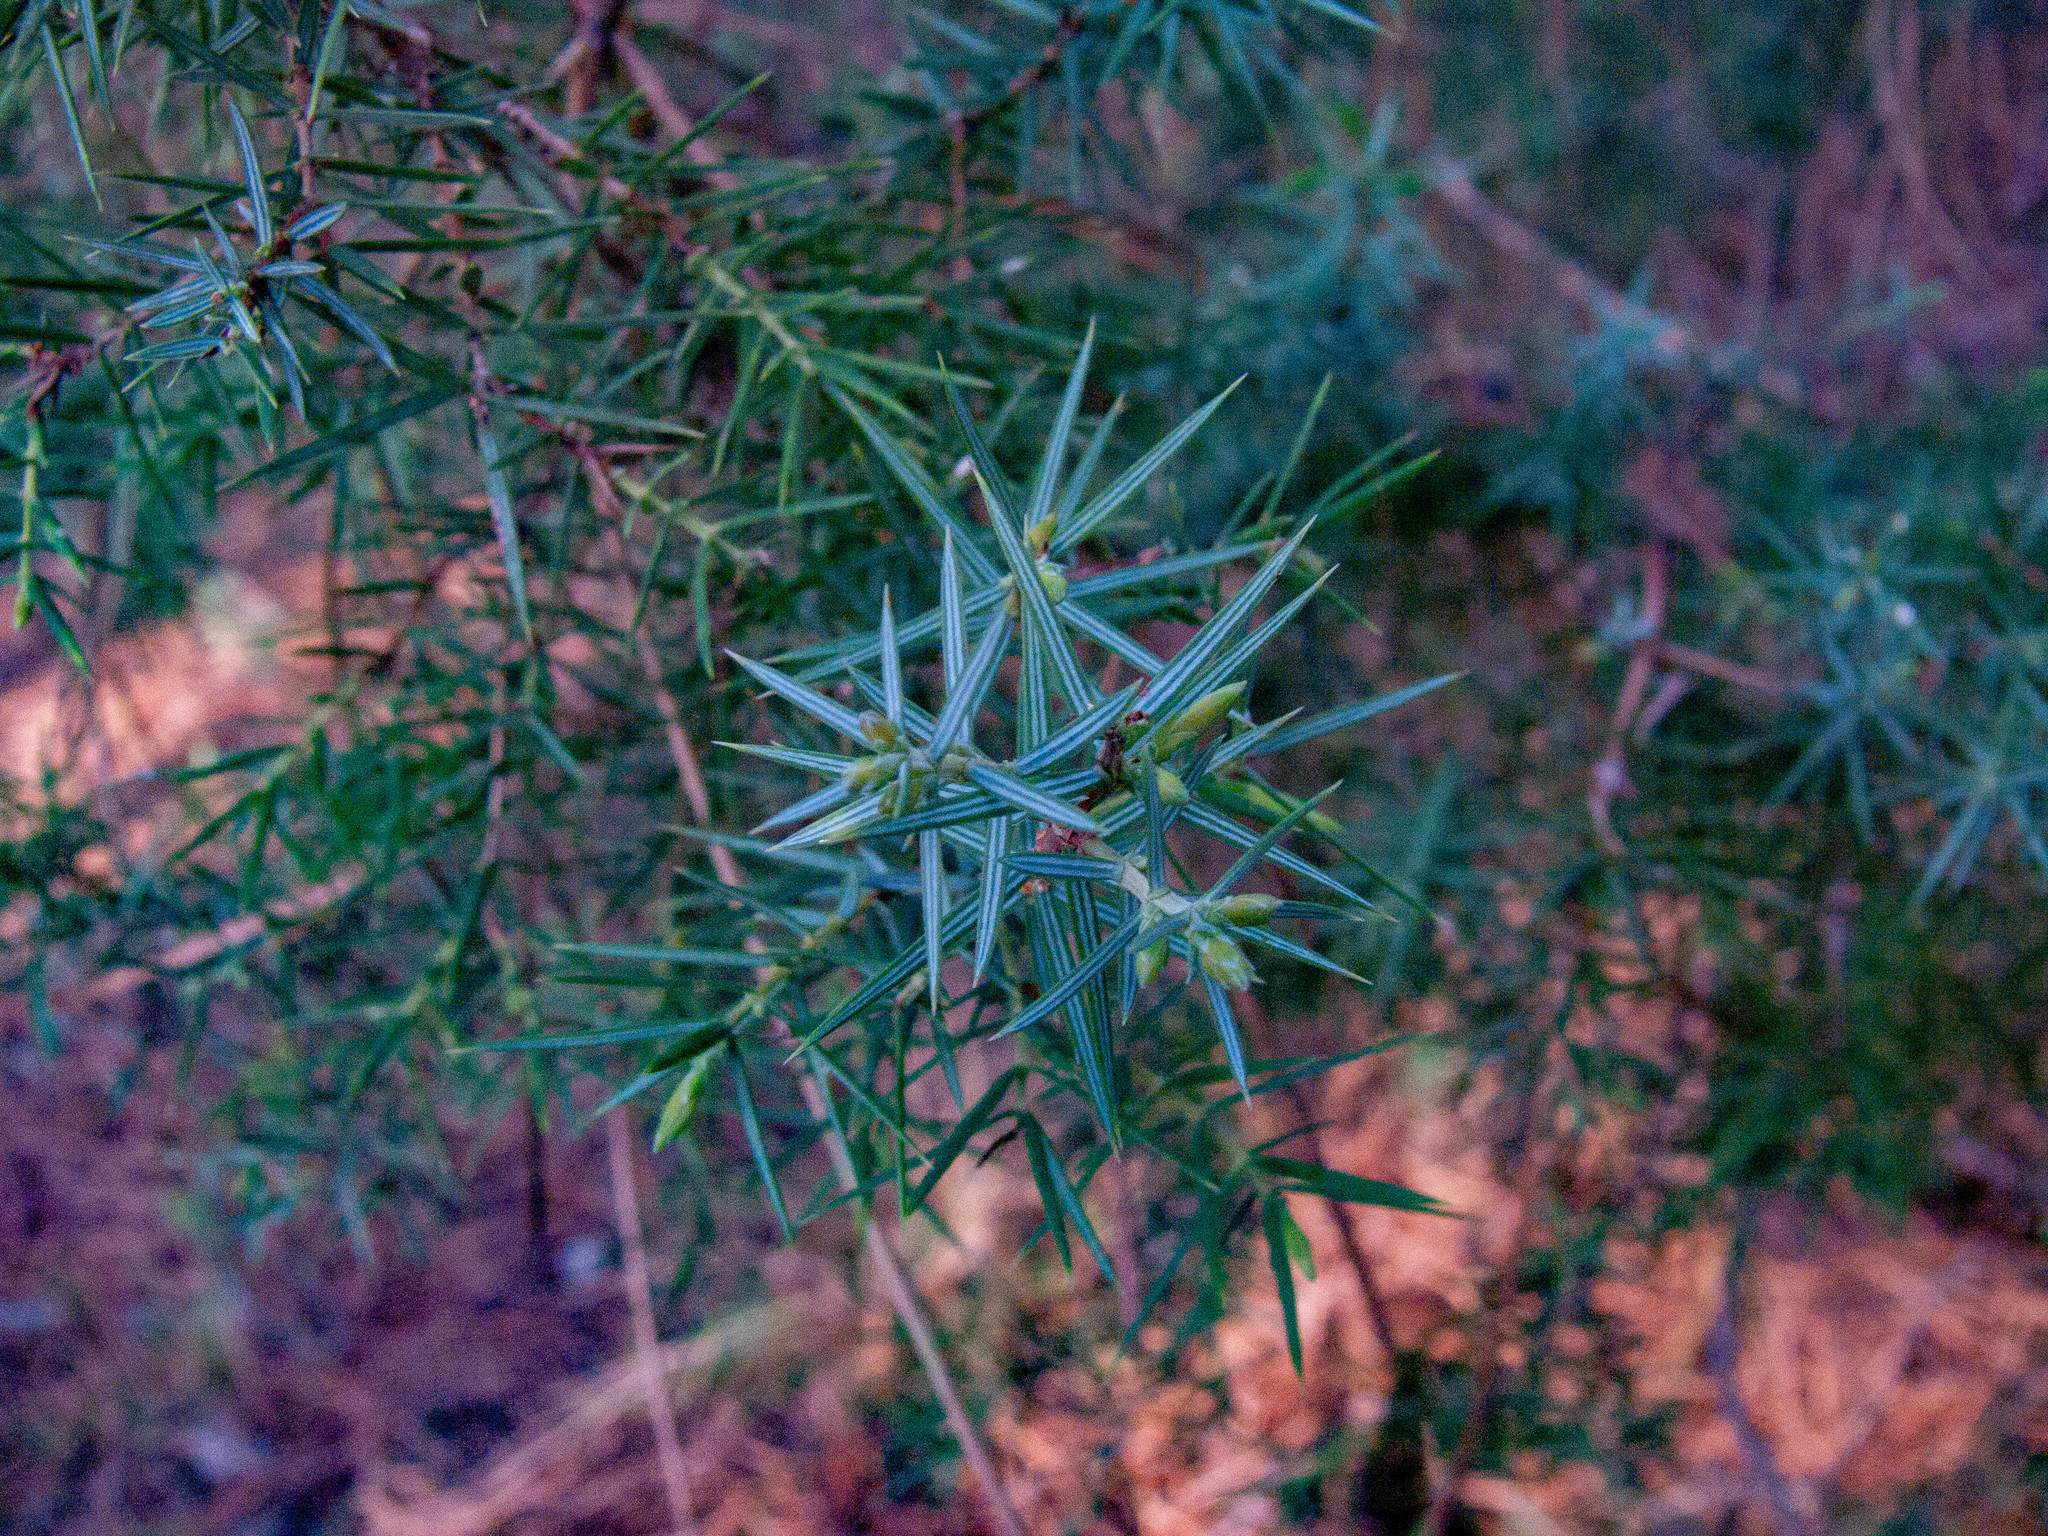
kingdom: Plantae
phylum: Tracheophyta
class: Pinopsida
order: Pinales
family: Cupressaceae
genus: Juniperus
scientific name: Juniperus oxycedrus
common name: Prickly juniper
